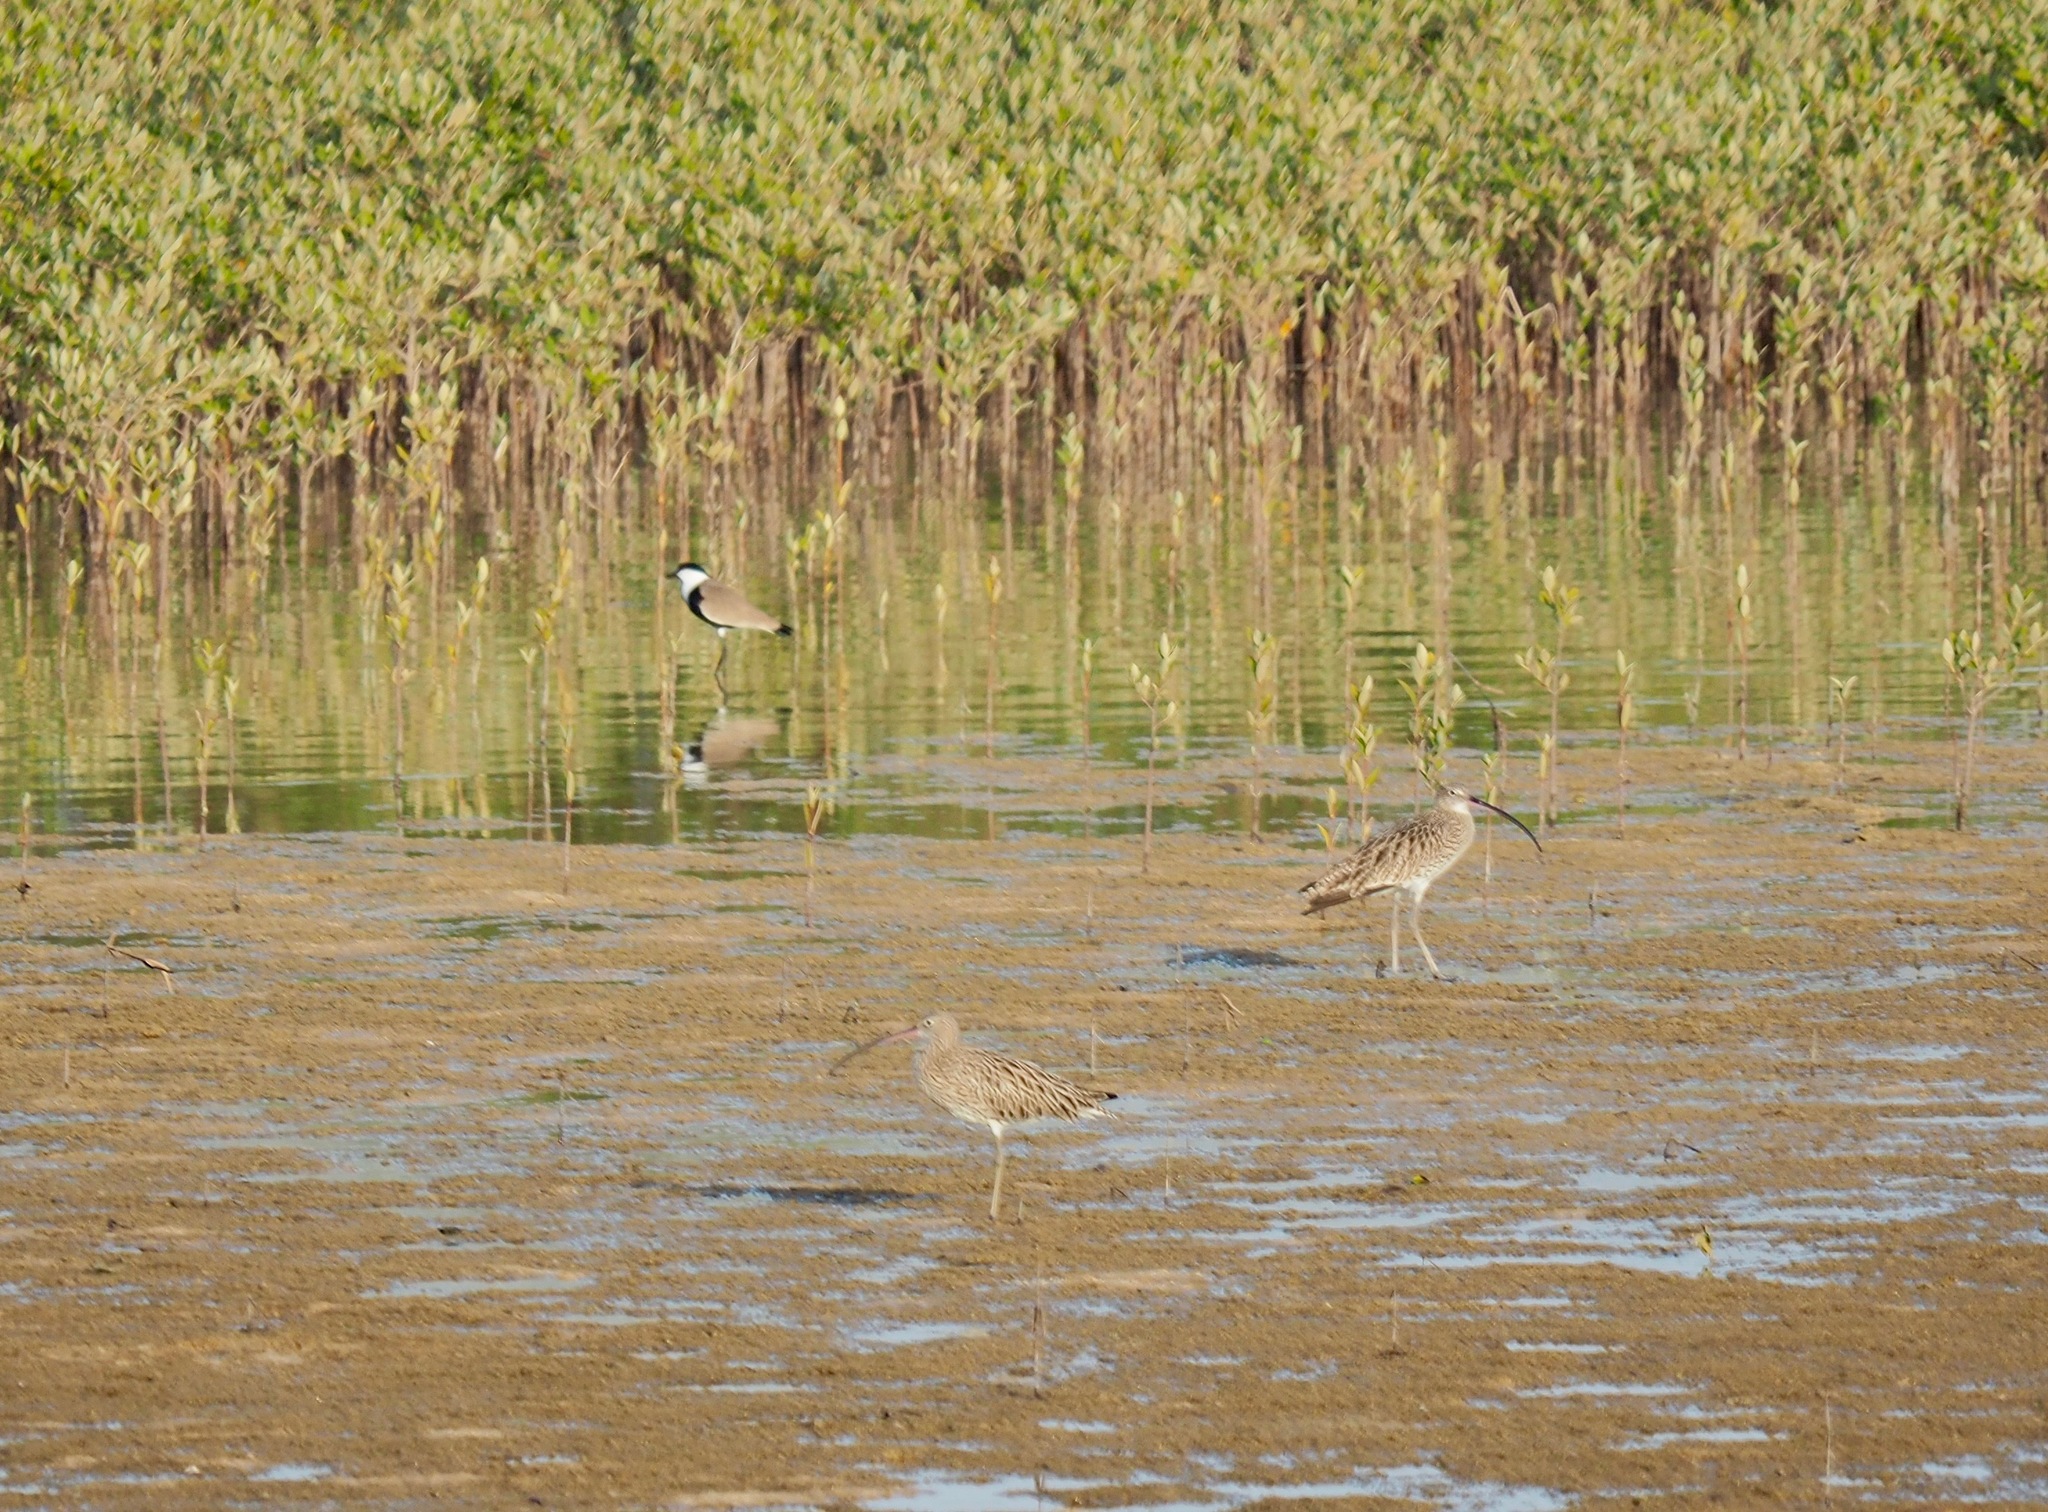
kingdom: Animalia
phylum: Chordata
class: Aves
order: Charadriiformes
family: Scolopacidae
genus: Numenius
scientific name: Numenius arquata
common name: Eurasian curlew
